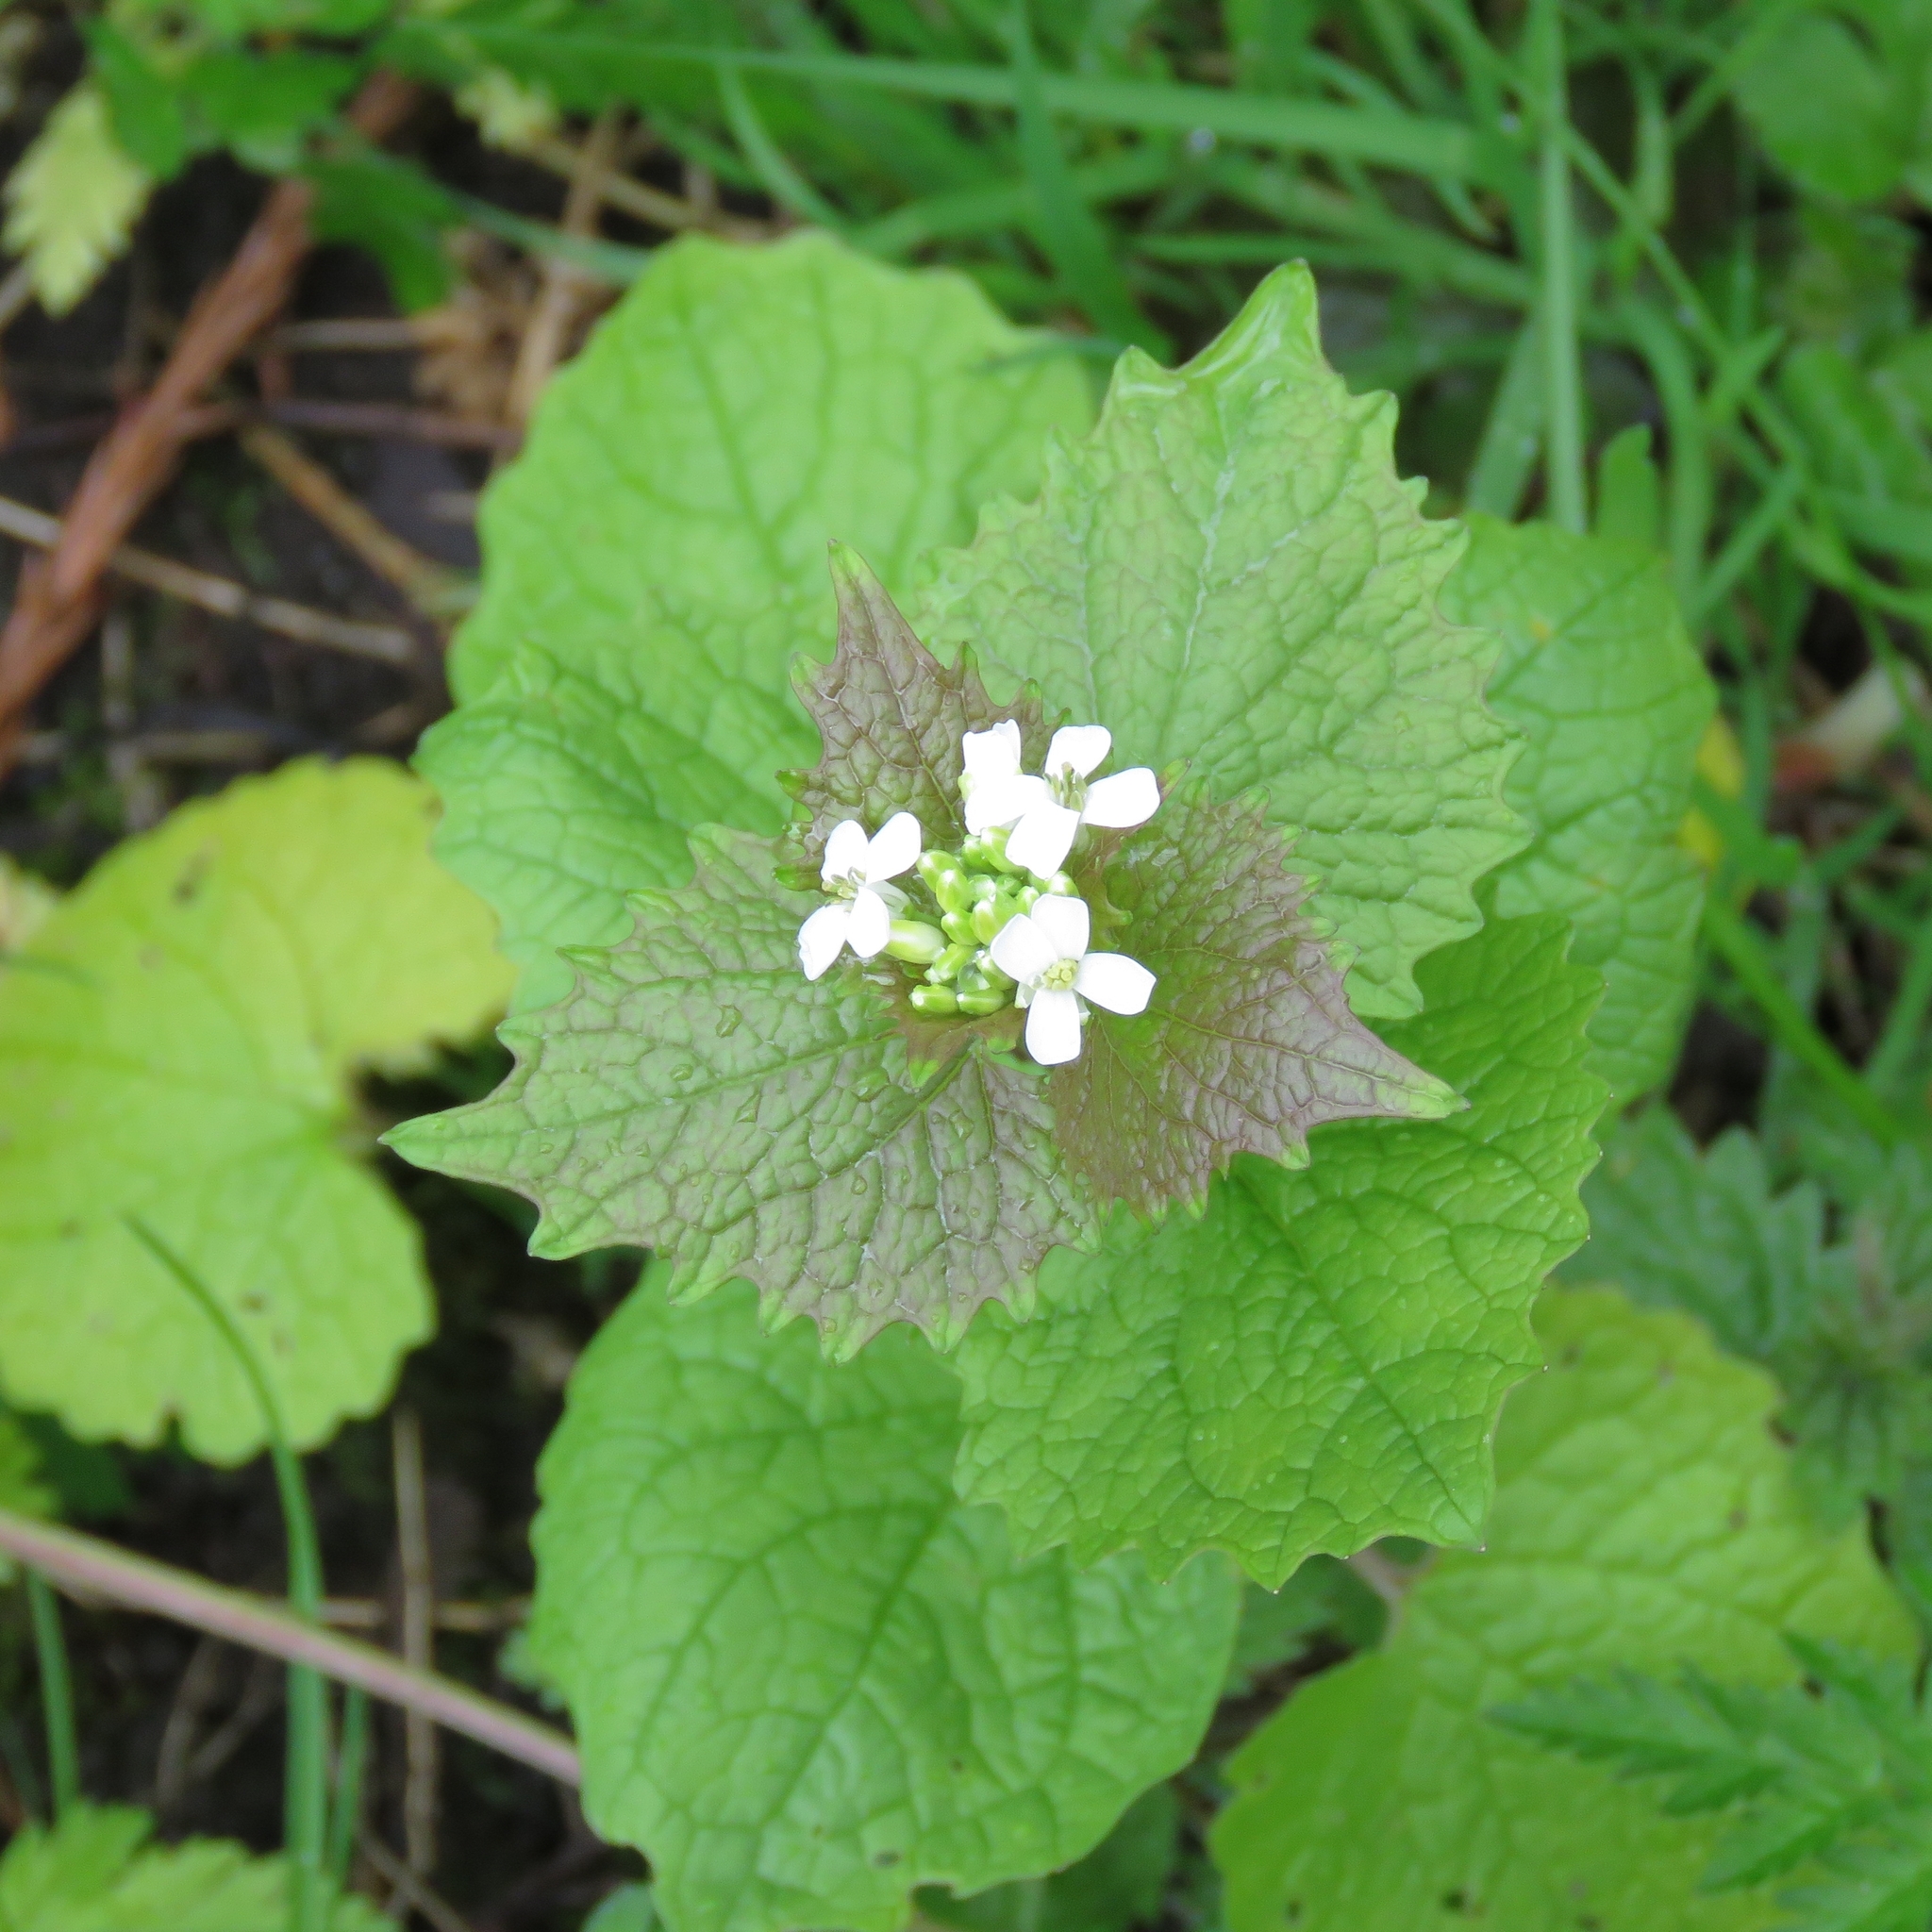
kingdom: Plantae
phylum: Tracheophyta
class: Magnoliopsida
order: Brassicales
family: Brassicaceae
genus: Alliaria
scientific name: Alliaria petiolata
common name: Garlic mustard
